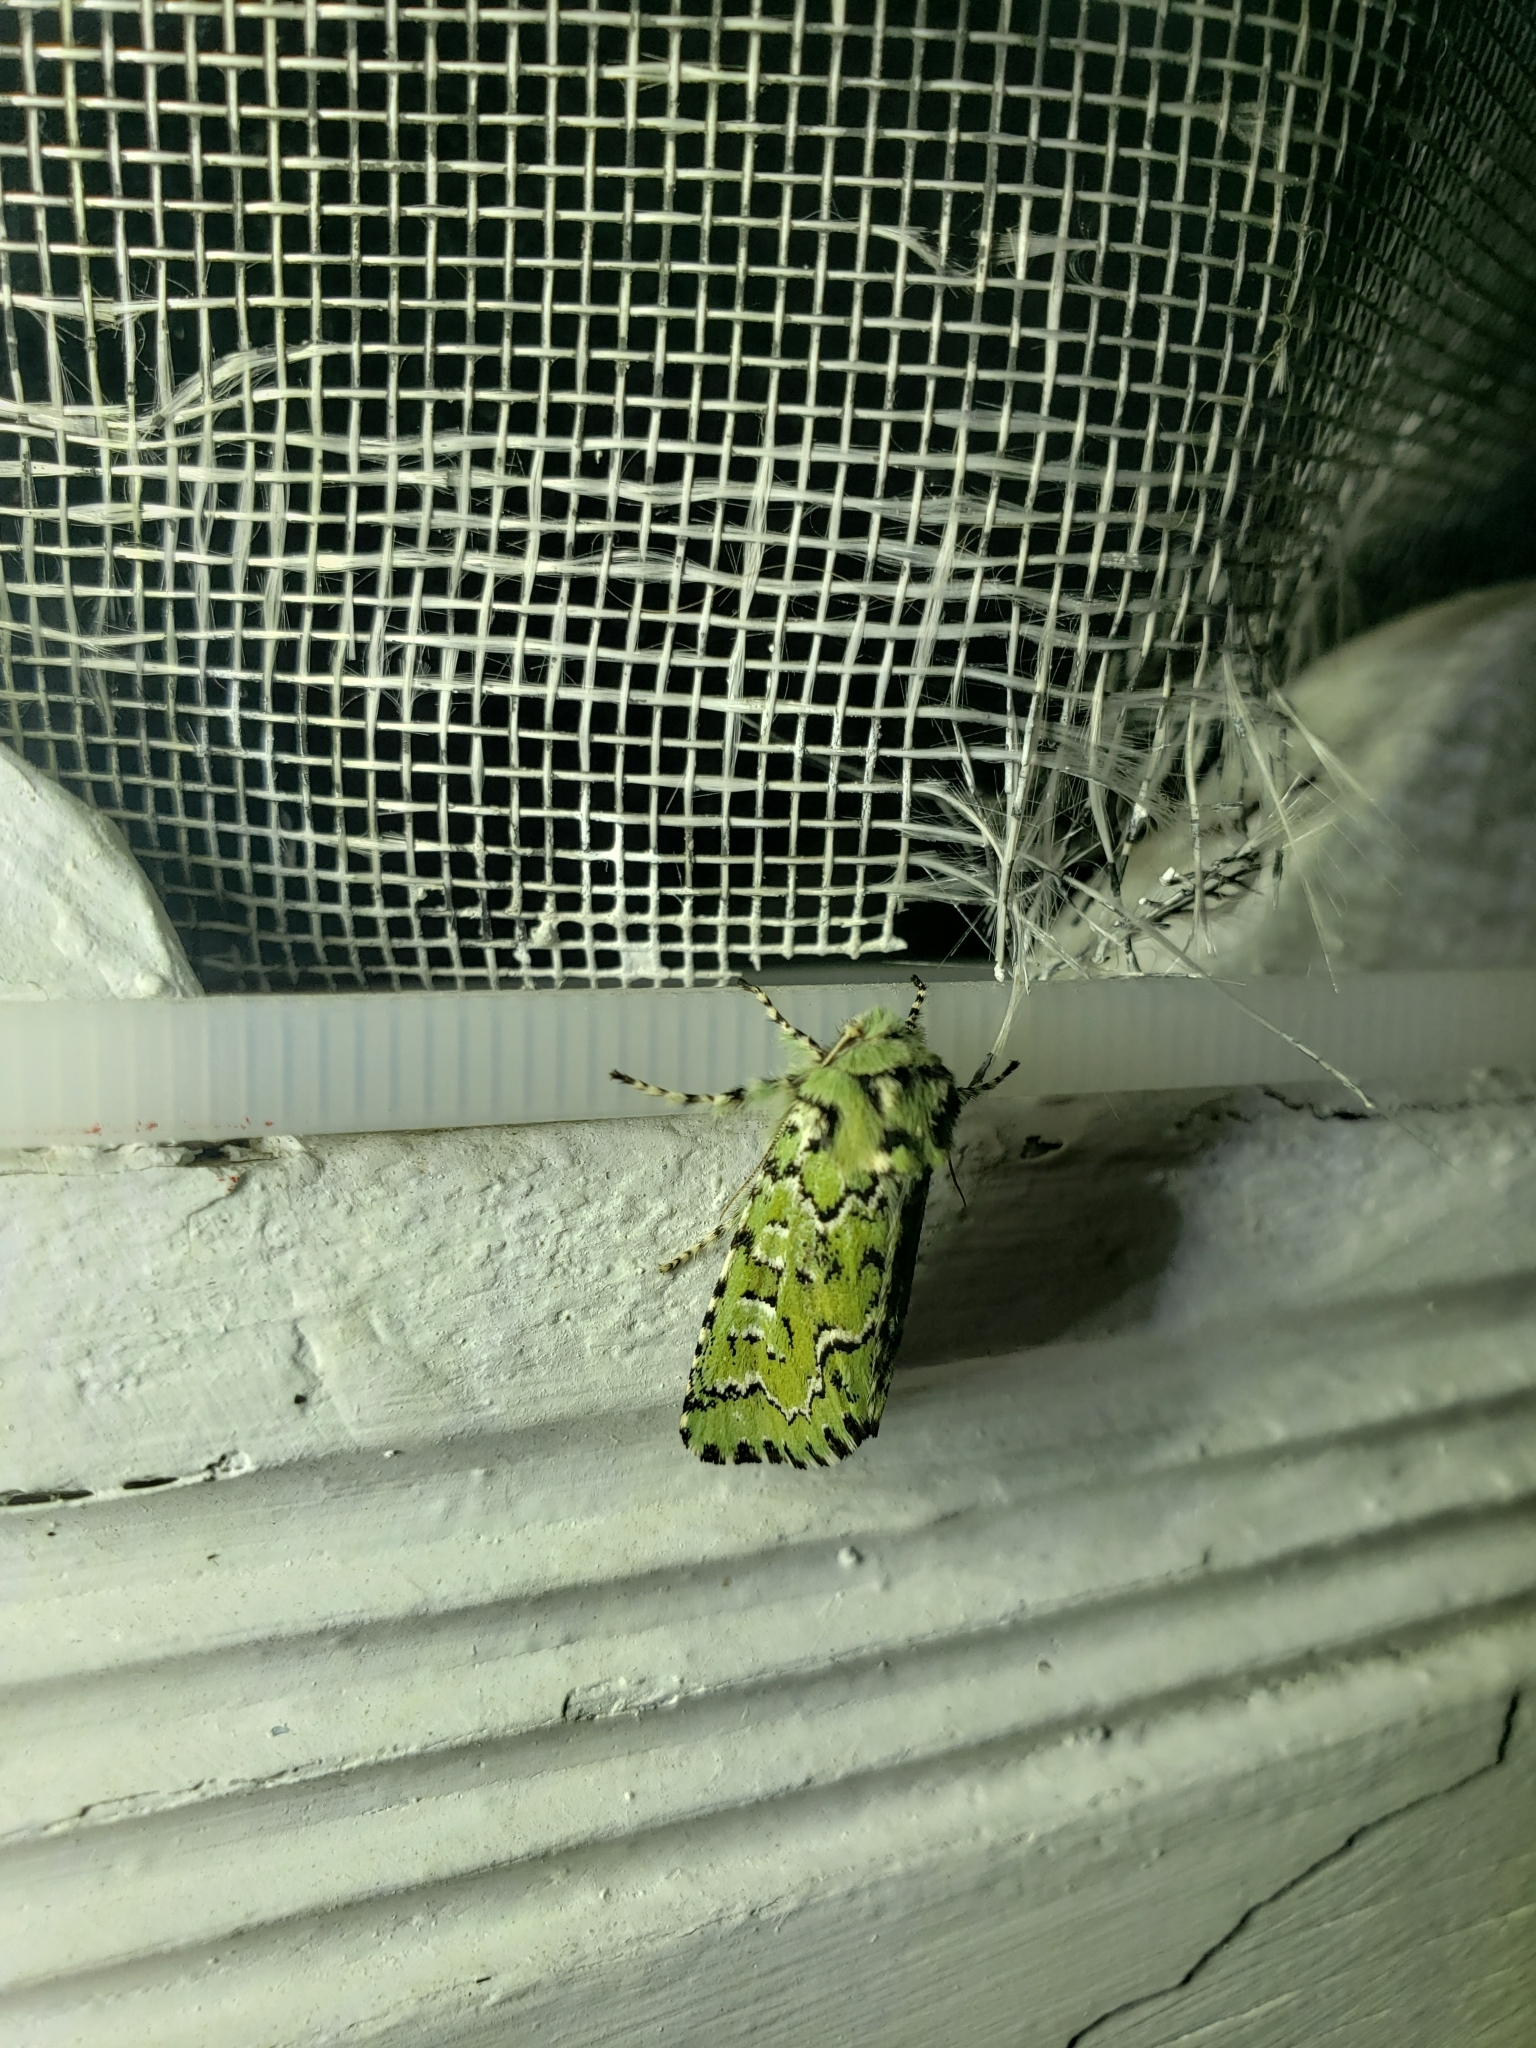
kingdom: Animalia
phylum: Arthropoda
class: Insecta
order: Lepidoptera
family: Noctuidae
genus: Feralia
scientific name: Feralia jocosa
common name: Joker
